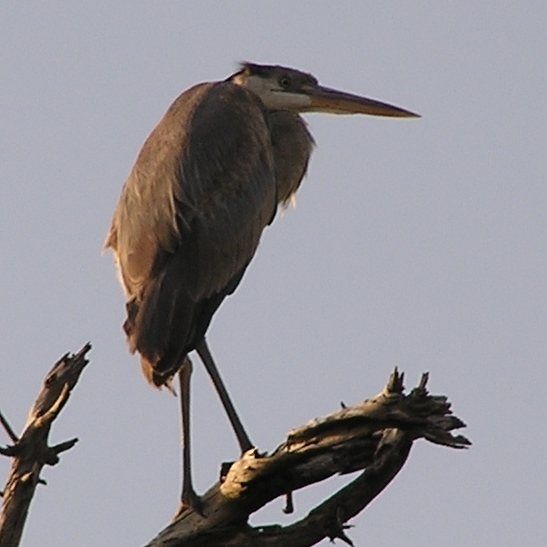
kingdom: Animalia
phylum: Chordata
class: Aves
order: Pelecaniformes
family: Ardeidae
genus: Ardea
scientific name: Ardea herodias
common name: Great blue heron
